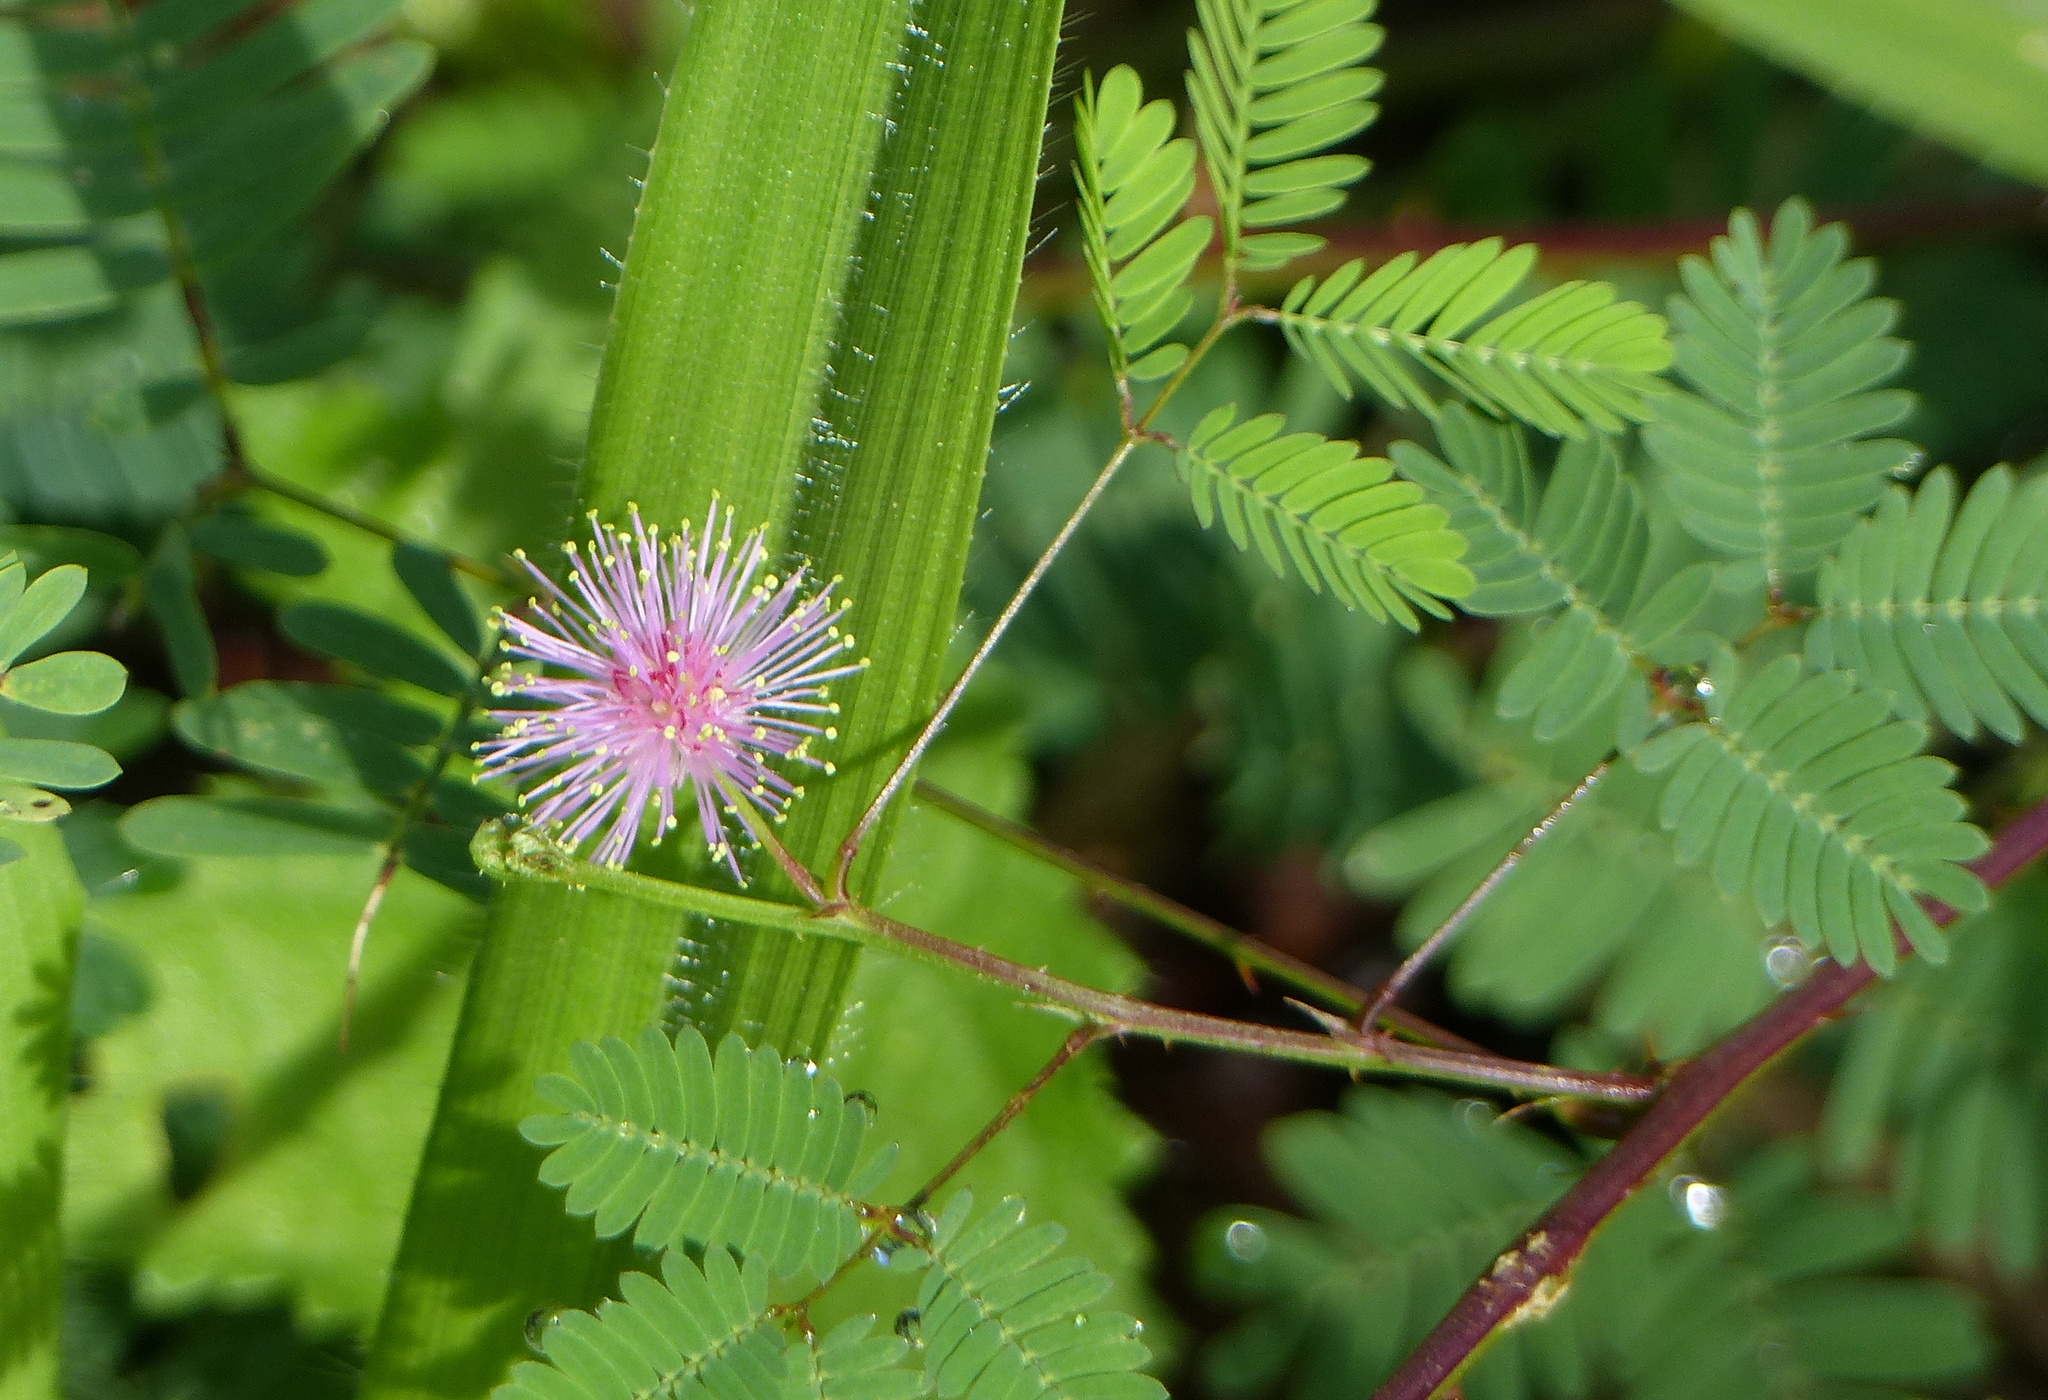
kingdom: Plantae
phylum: Tracheophyta
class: Magnoliopsida
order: Fabales
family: Fabaceae
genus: Mimosa
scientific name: Mimosa candollei
